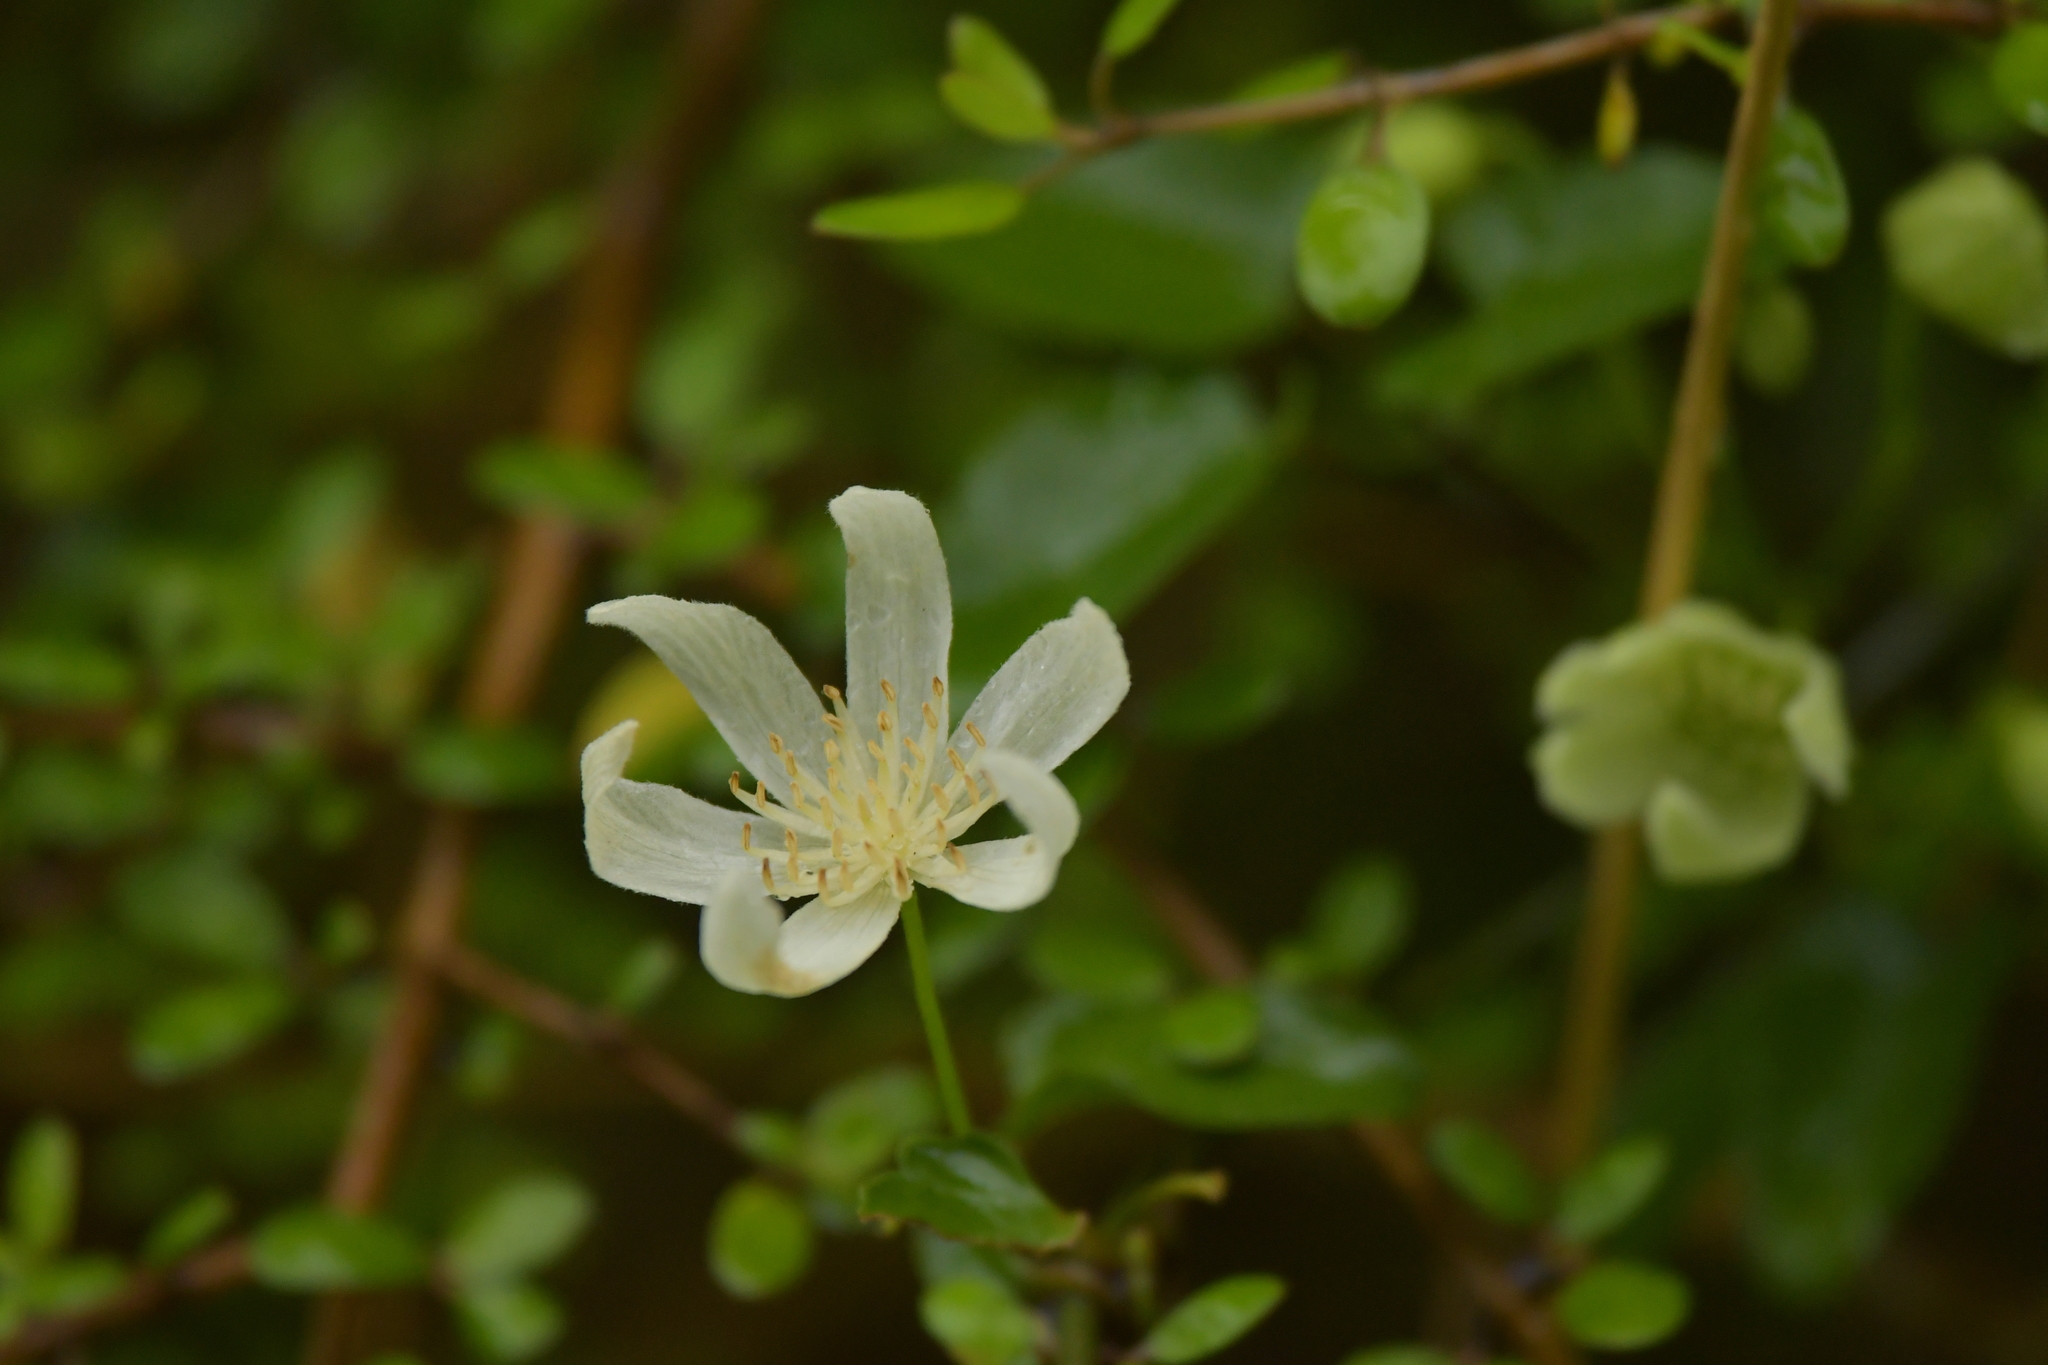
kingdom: Plantae
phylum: Tracheophyta
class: Magnoliopsida
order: Ranunculales
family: Ranunculaceae
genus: Clematis
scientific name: Clematis forsteri
